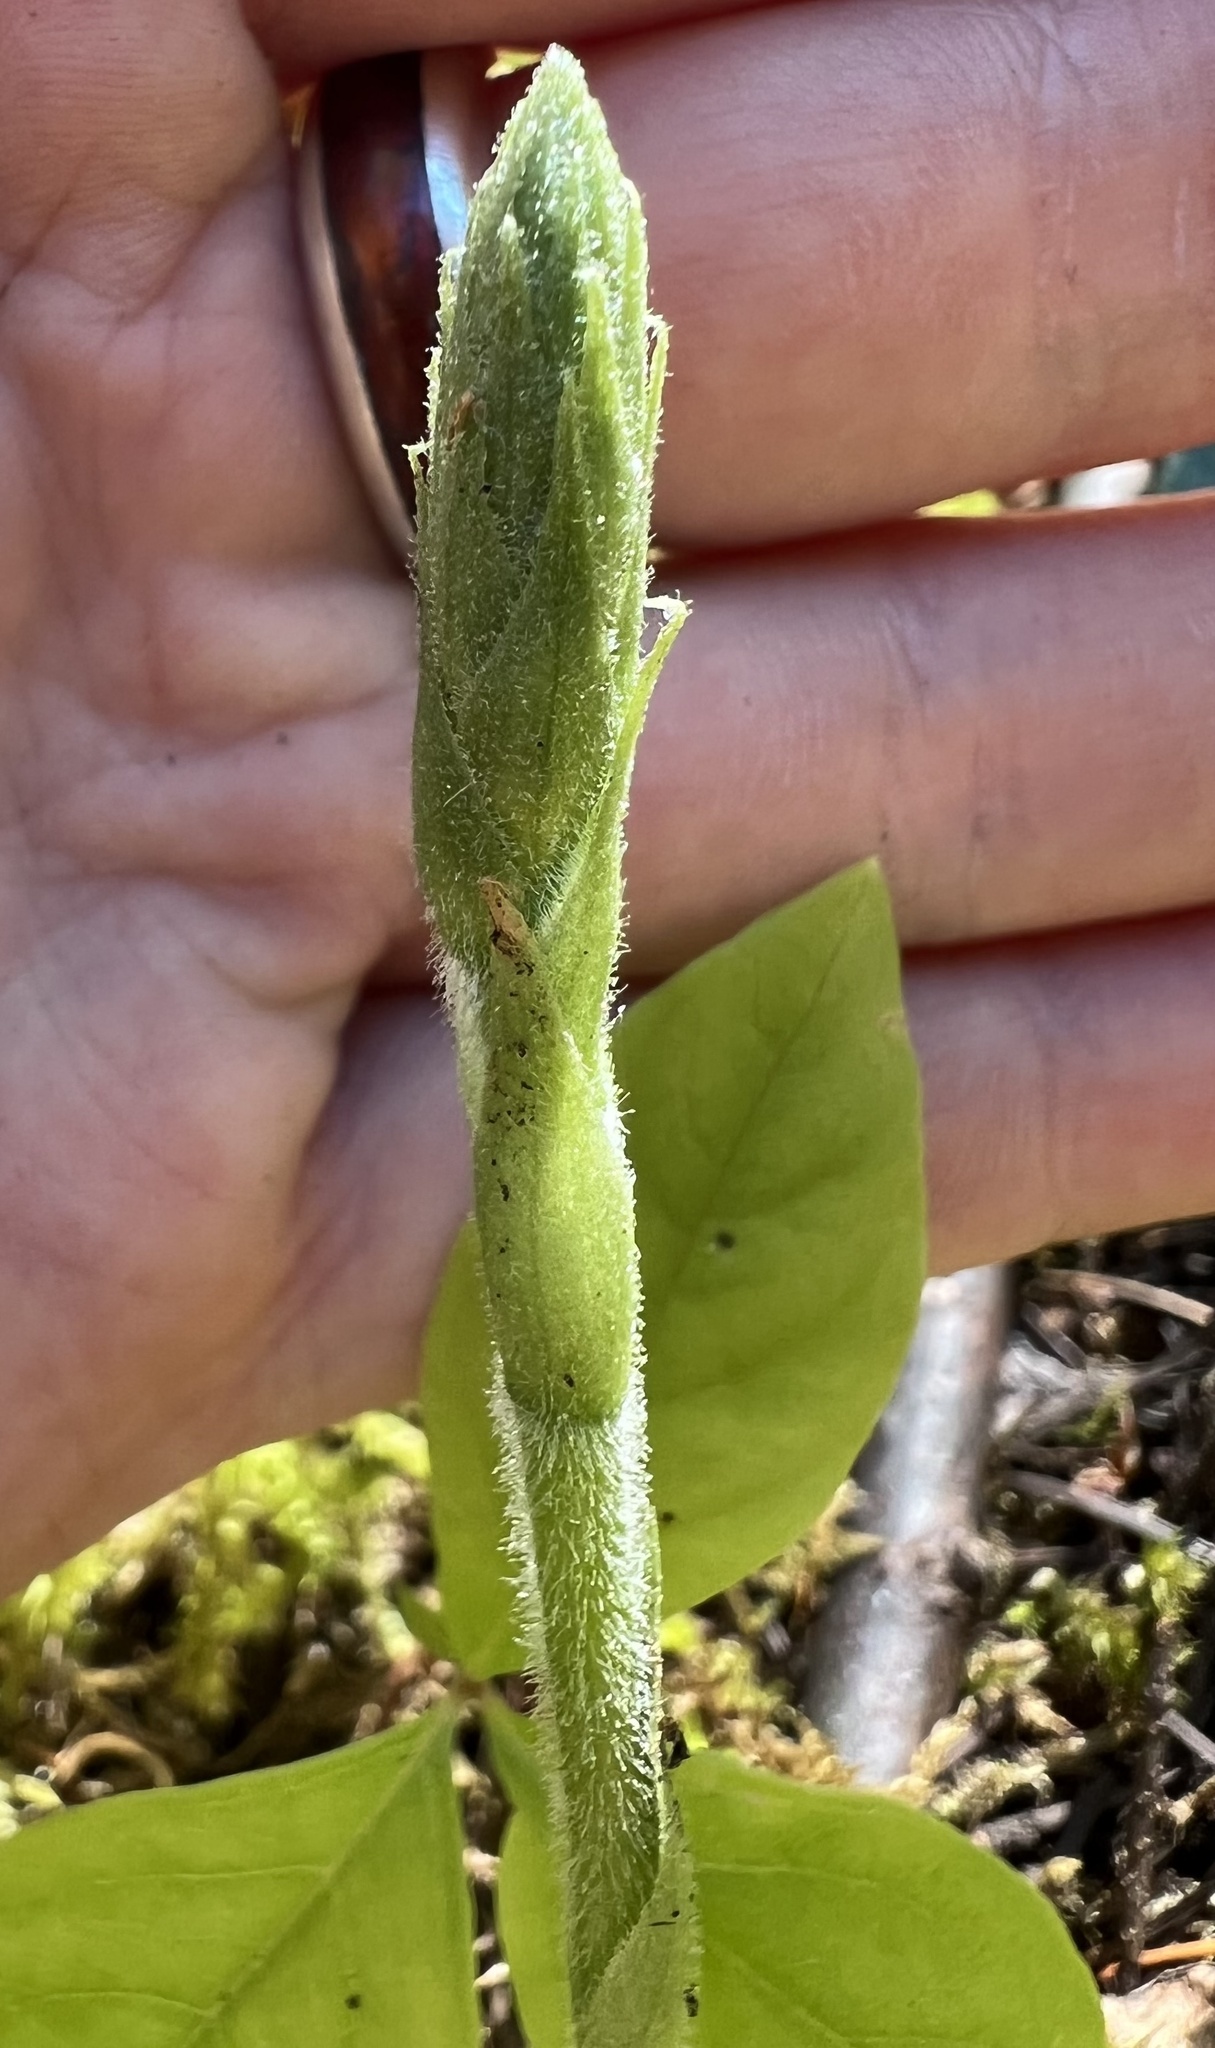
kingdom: Plantae
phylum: Tracheophyta
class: Liliopsida
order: Asparagales
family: Orchidaceae
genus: Goodyera
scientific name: Goodyera oblongifolia
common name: Giant rattlesnake-plantain
